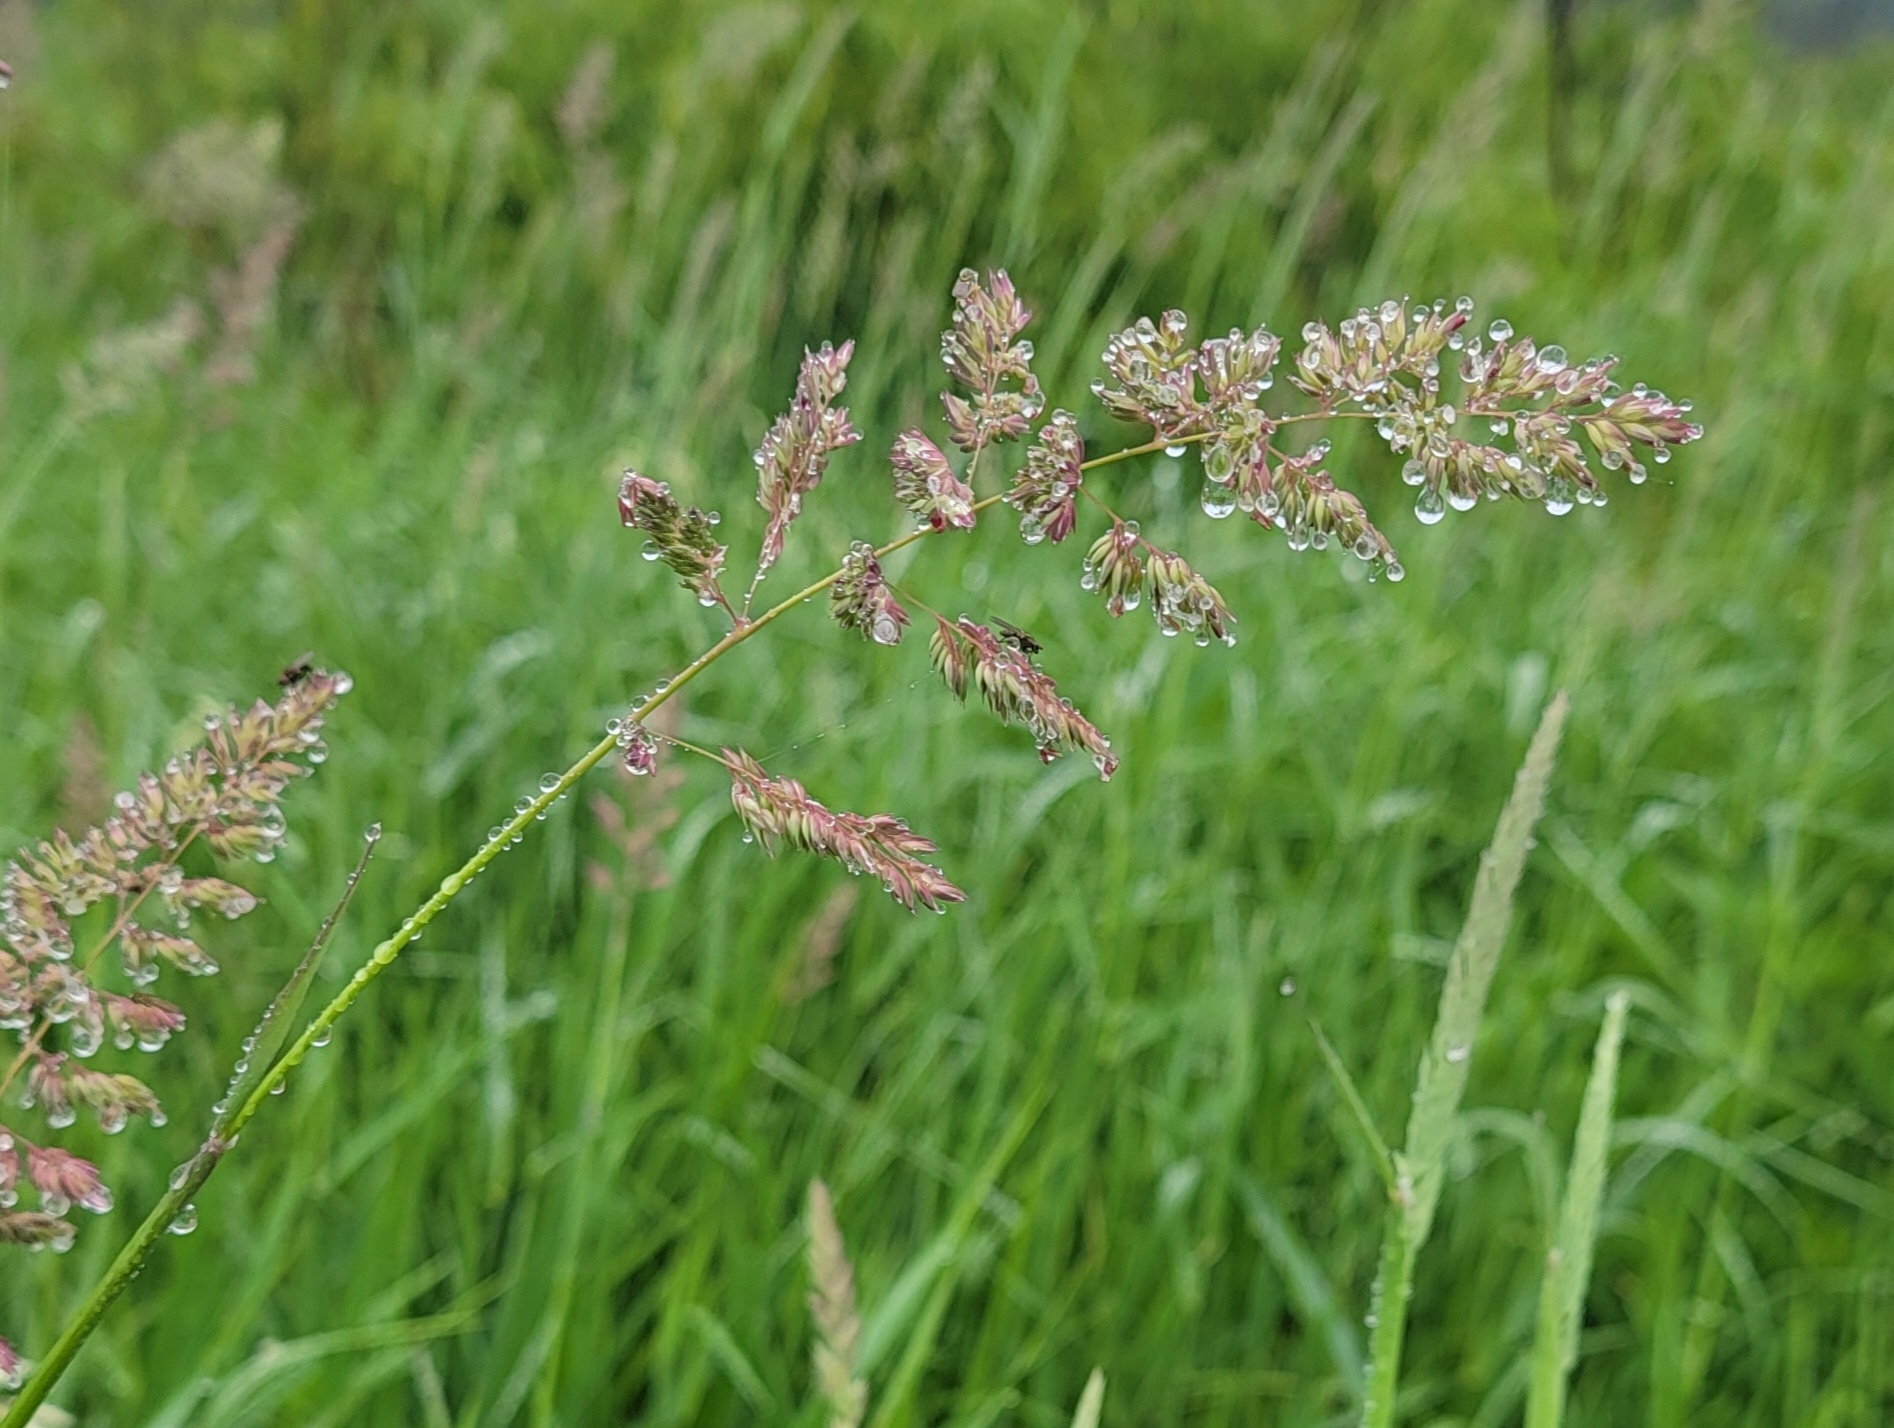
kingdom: Plantae
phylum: Tracheophyta
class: Liliopsida
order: Poales
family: Poaceae
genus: Phalaris
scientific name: Phalaris arundinacea
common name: Reed canary-grass
